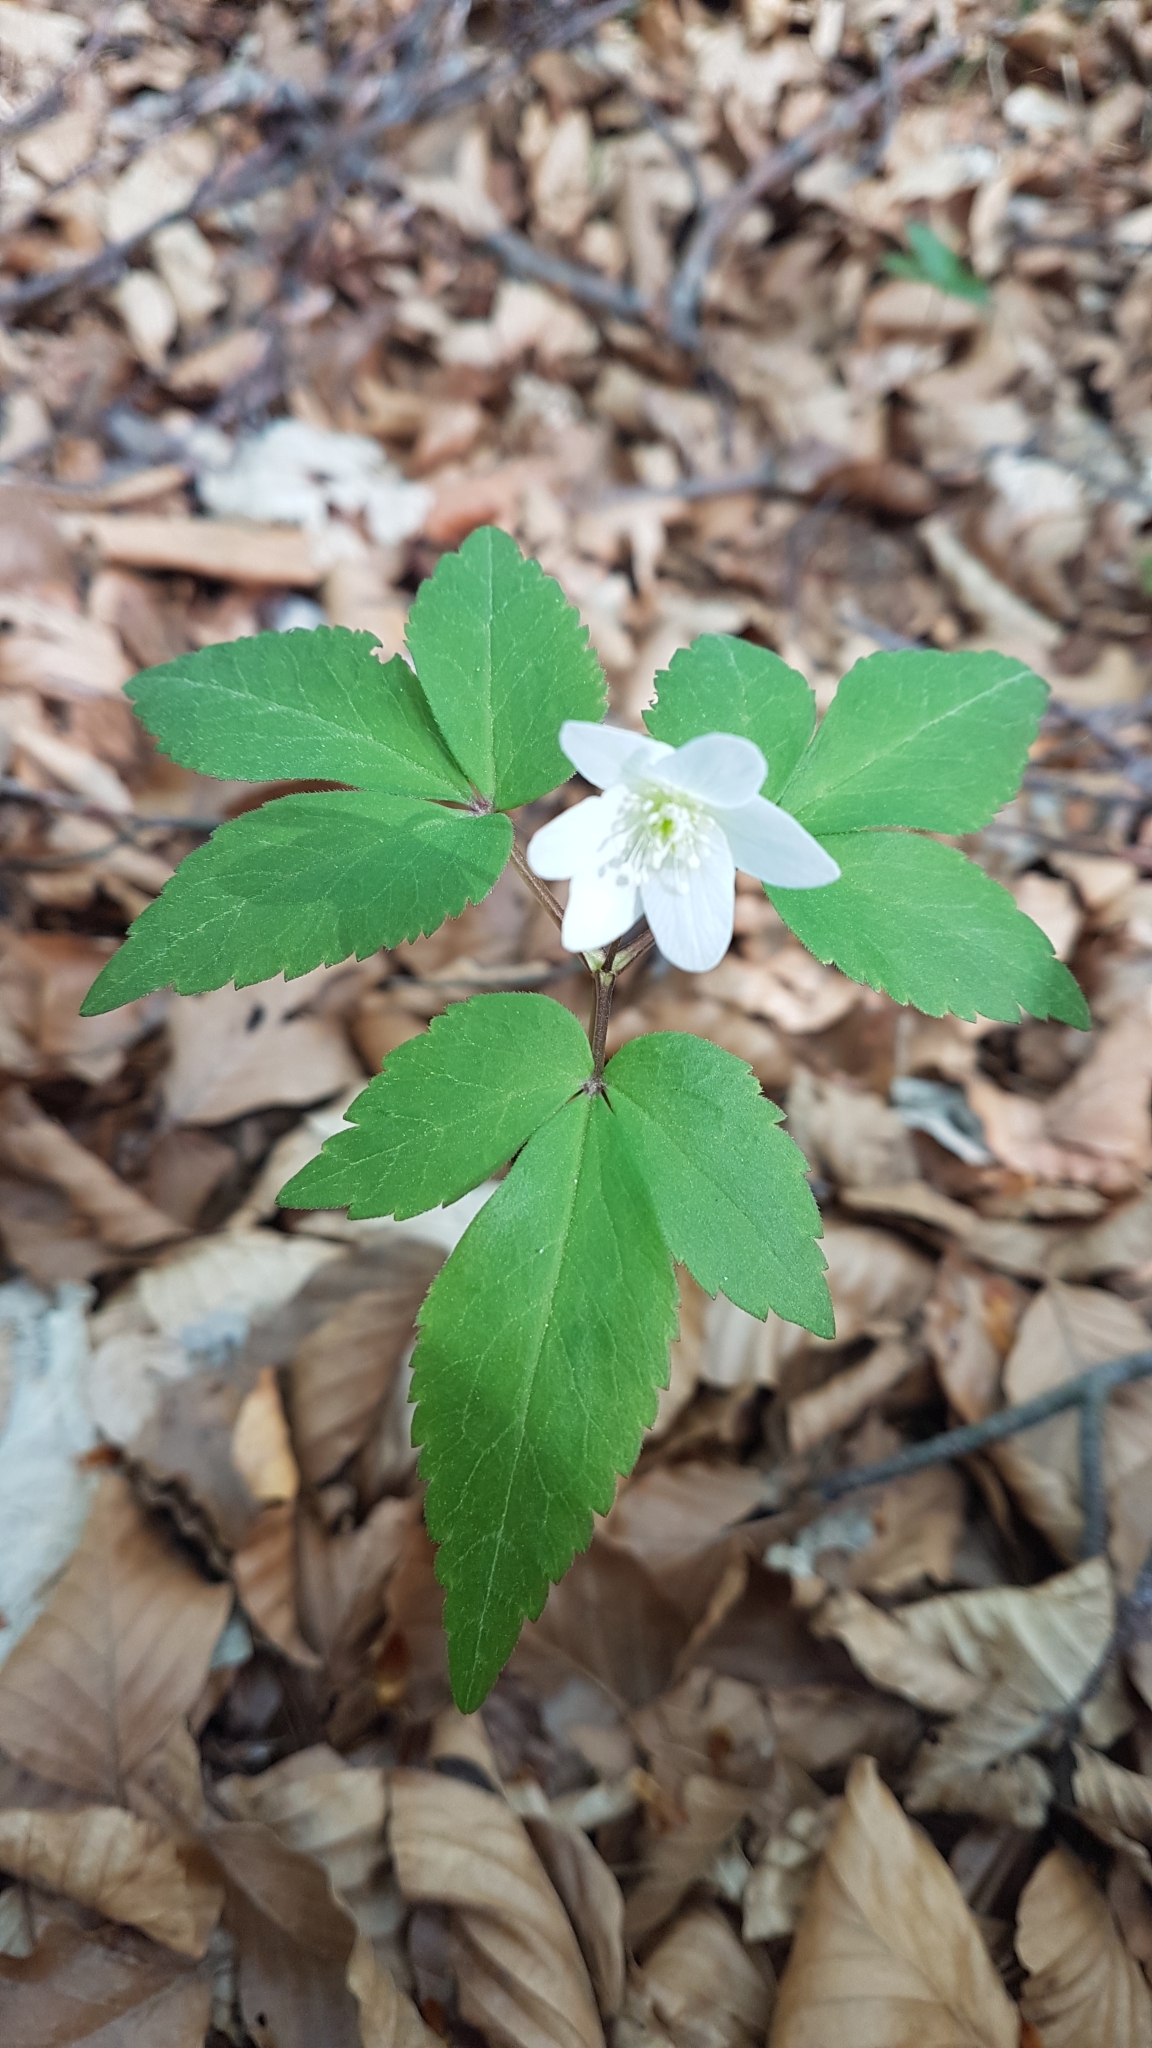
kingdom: Plantae
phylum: Tracheophyta
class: Magnoliopsida
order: Ranunculales
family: Ranunculaceae
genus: Anemone
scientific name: Anemone trifolia
